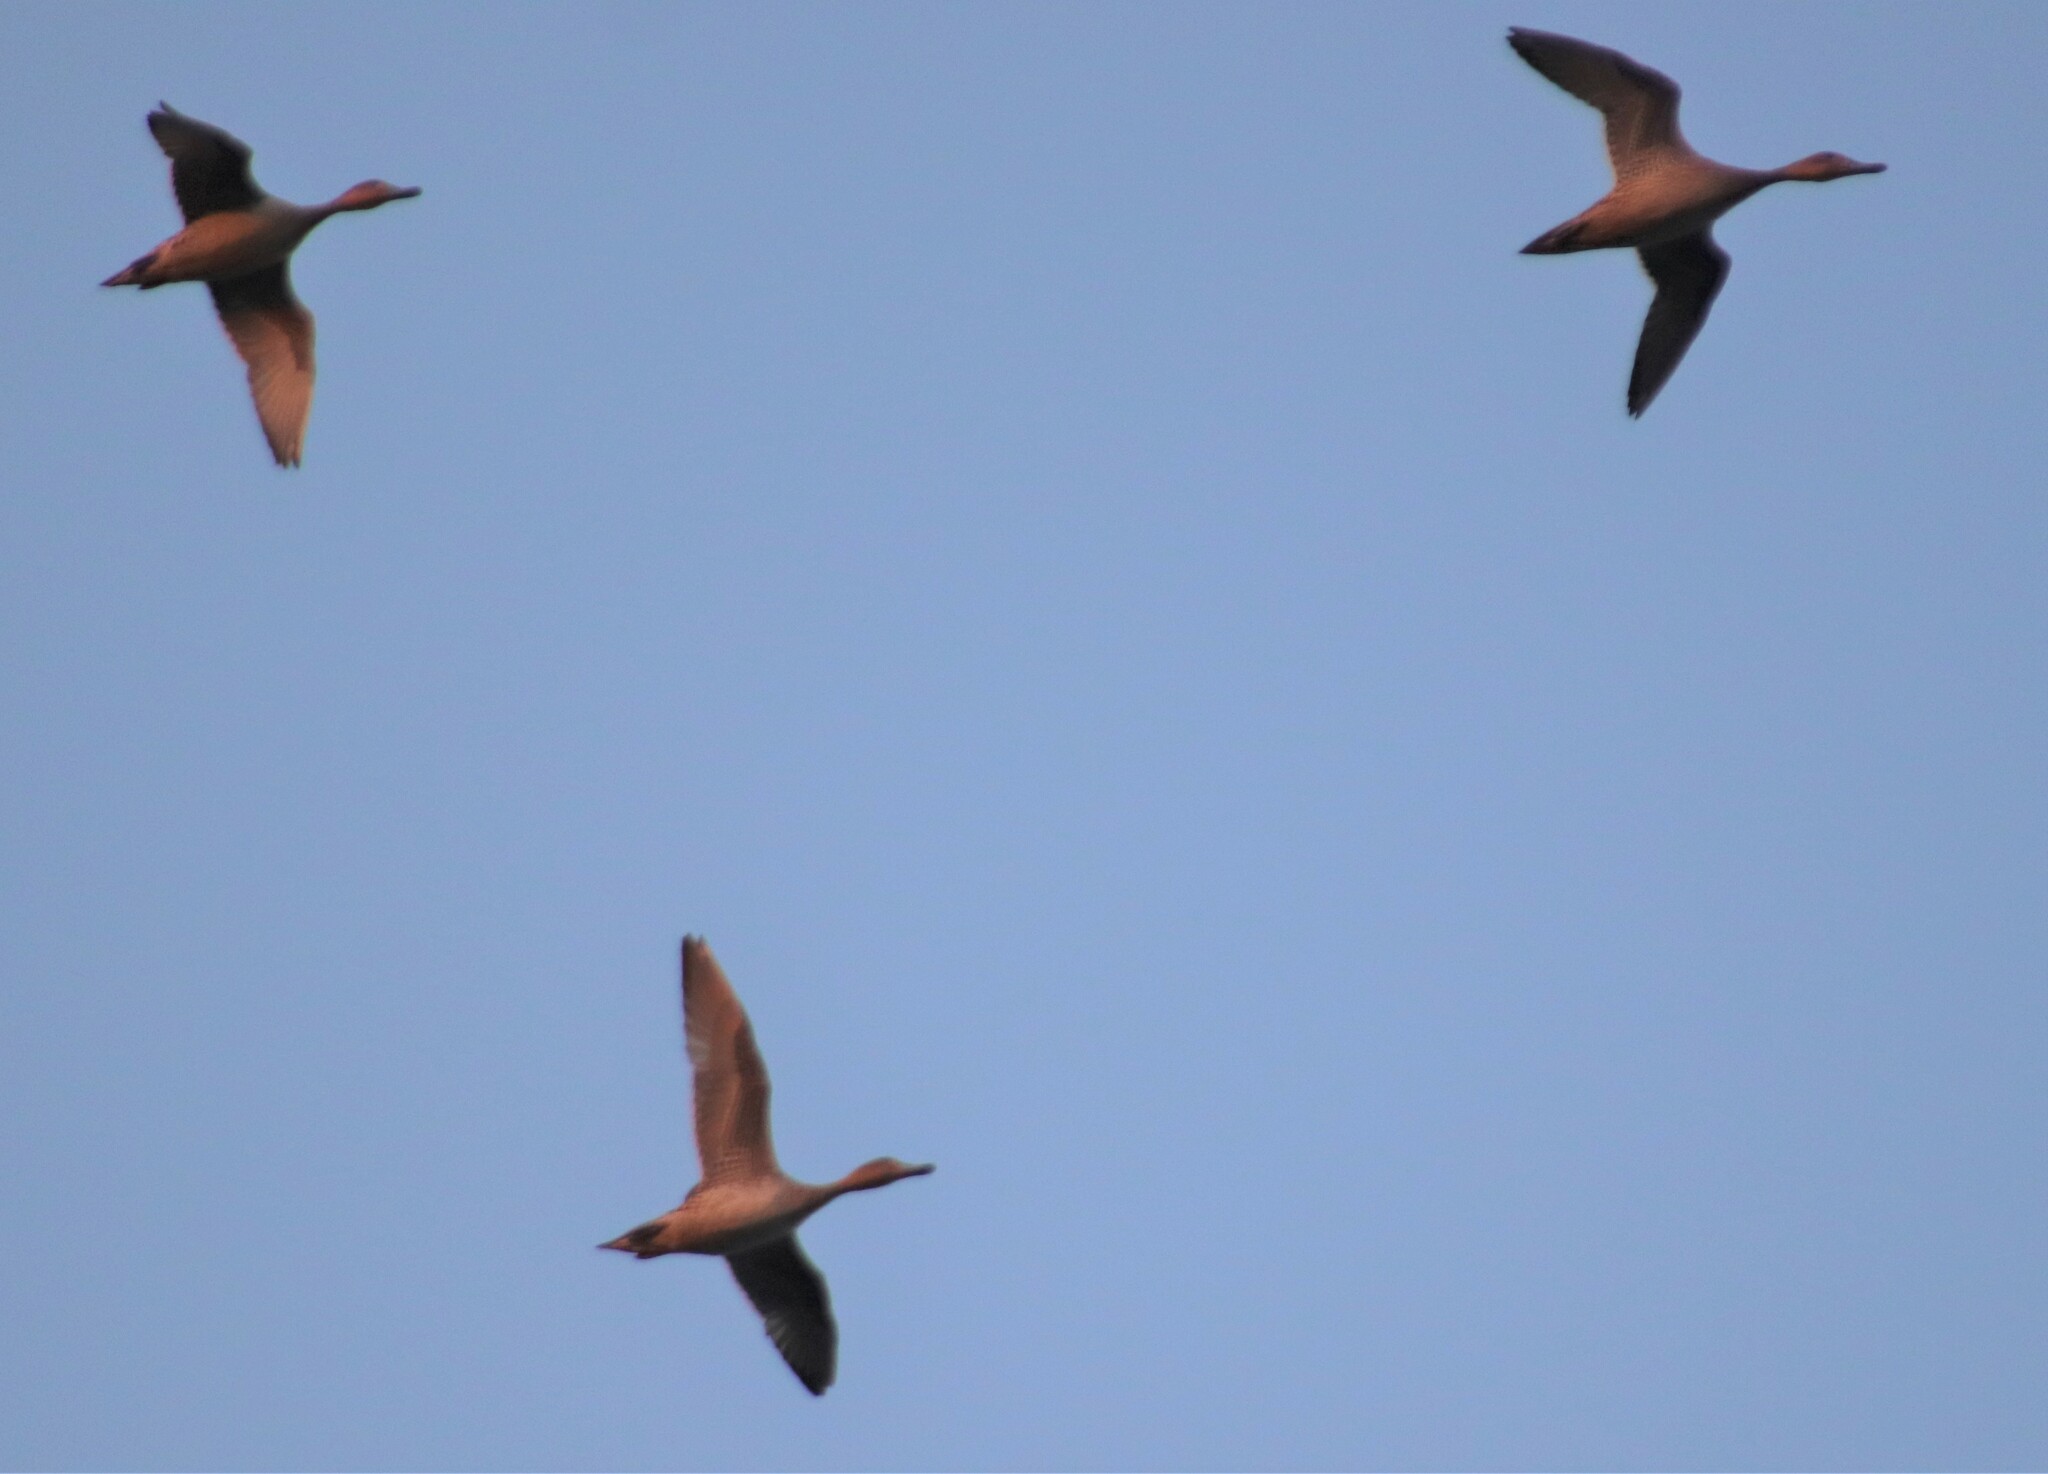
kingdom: Animalia
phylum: Chordata
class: Aves
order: Anseriformes
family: Anatidae
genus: Anas
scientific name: Anas acuta
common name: Northern pintail
